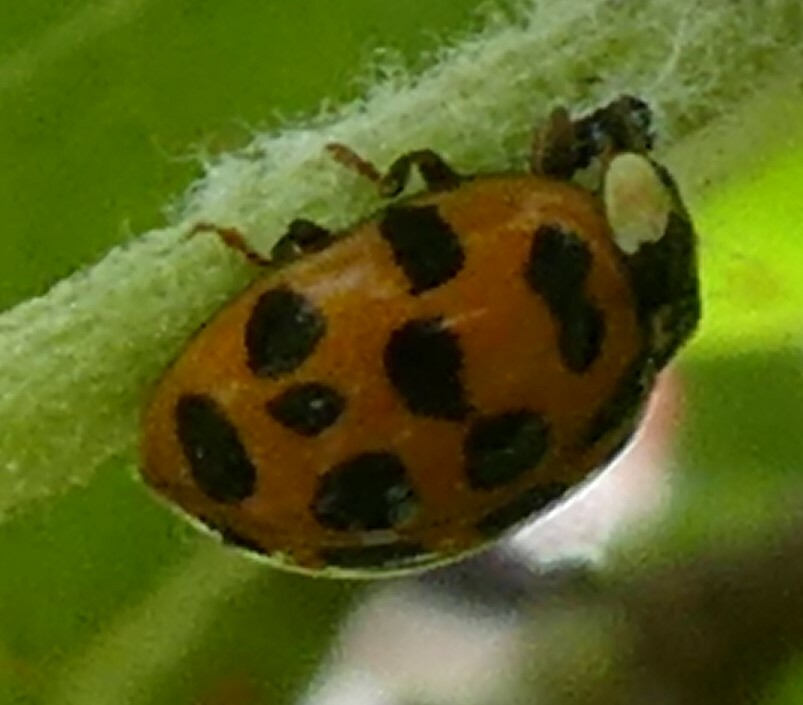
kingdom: Animalia
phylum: Arthropoda
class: Insecta
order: Coleoptera
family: Coccinellidae
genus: Harmonia
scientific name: Harmonia axyridis
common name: Harlequin ladybird
